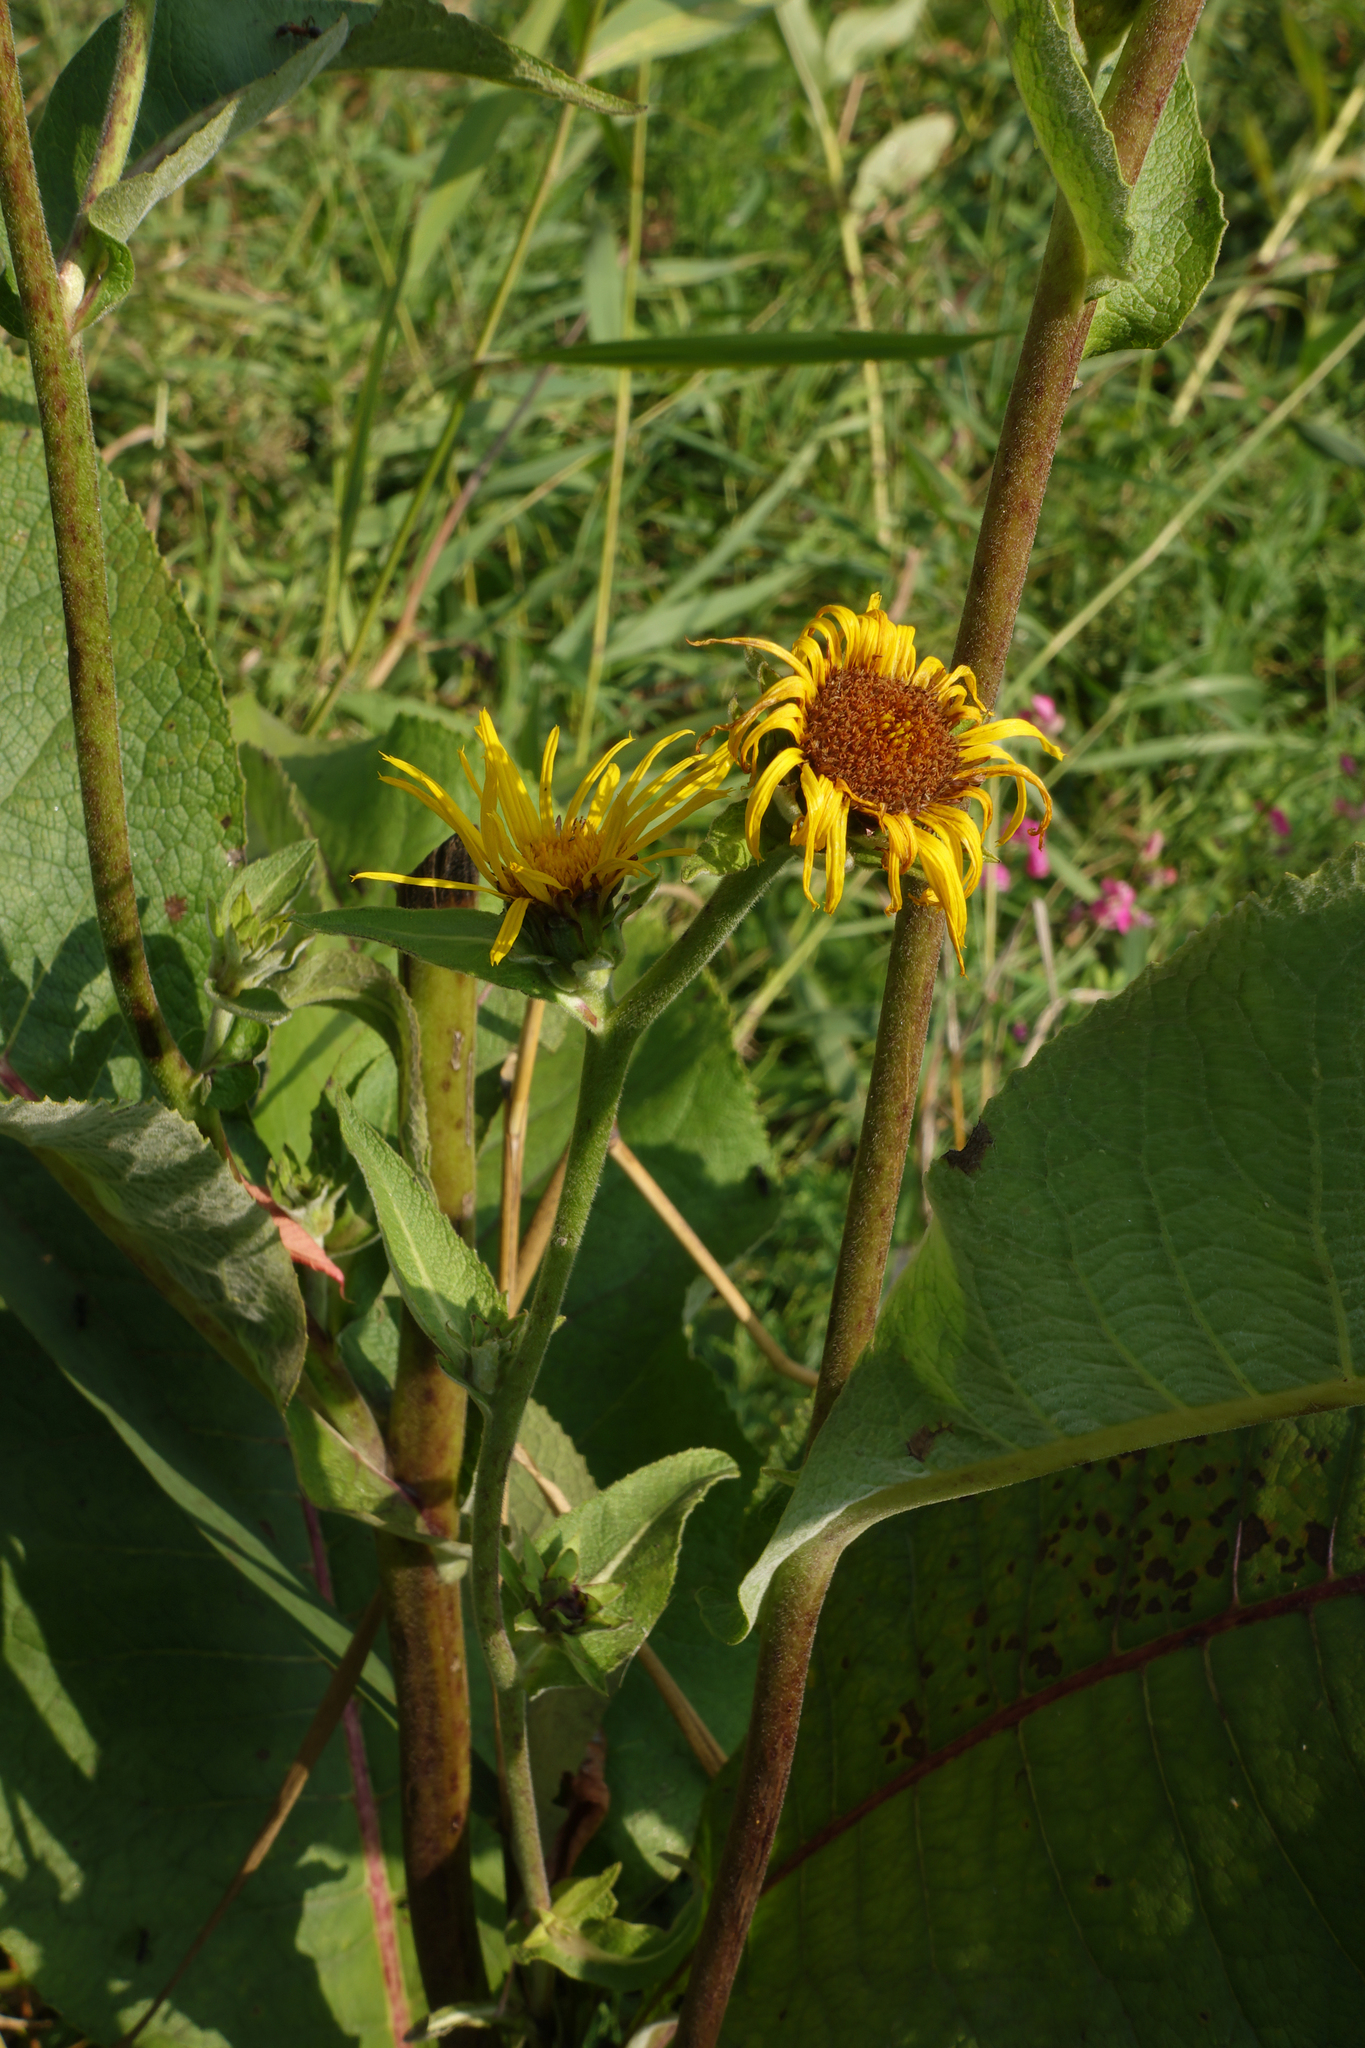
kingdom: Plantae
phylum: Tracheophyta
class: Magnoliopsida
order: Asterales
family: Asteraceae
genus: Inula
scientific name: Inula helenium
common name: Elecampane
